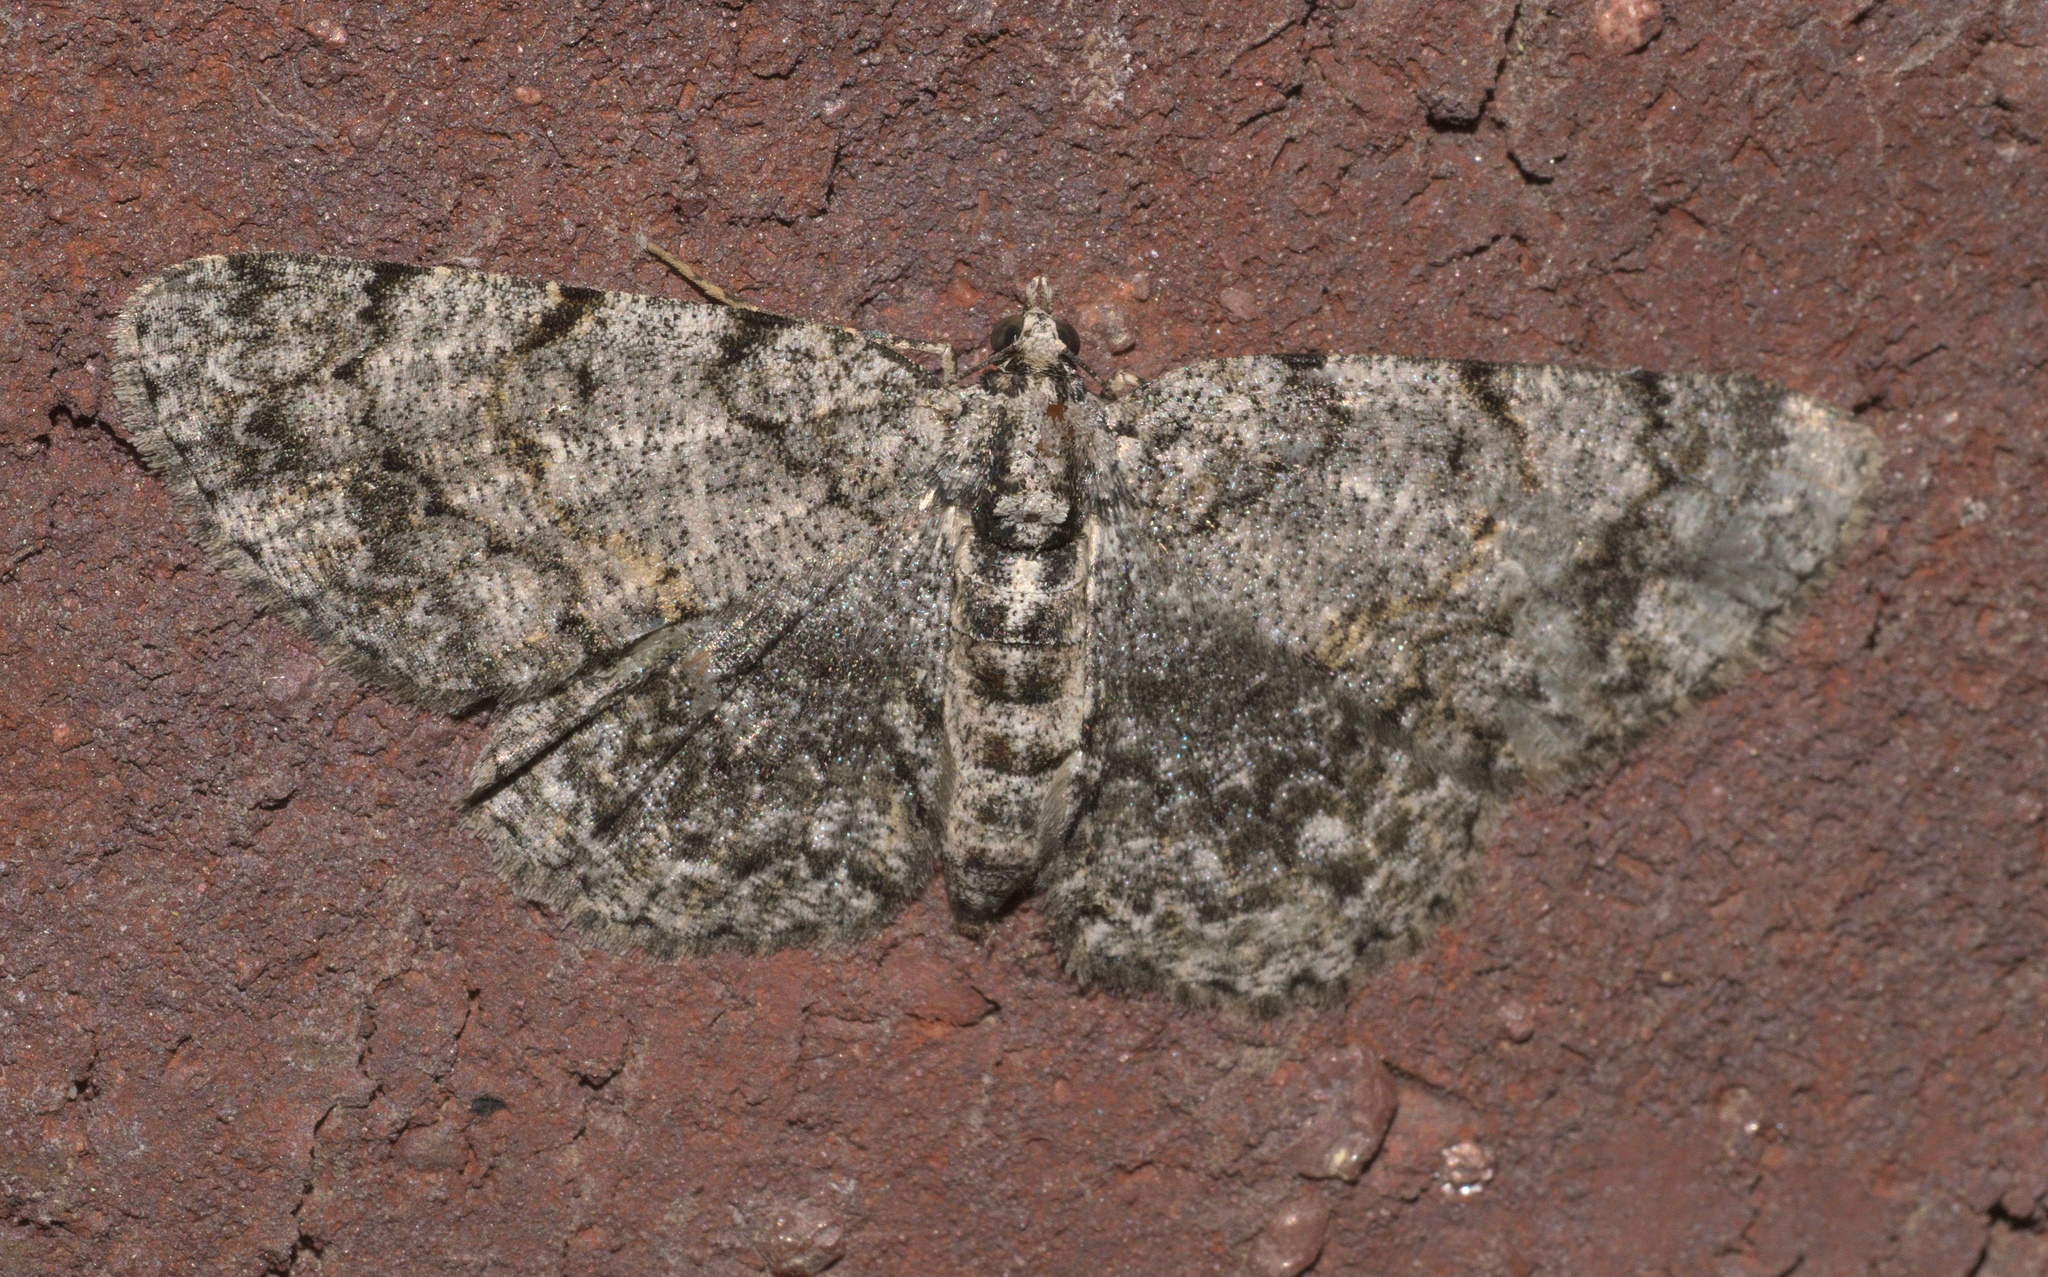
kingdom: Animalia
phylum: Arthropoda
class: Insecta
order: Lepidoptera
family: Geometridae
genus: Protoboarmia
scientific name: Protoboarmia porcelaria
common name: Porcelain gray
